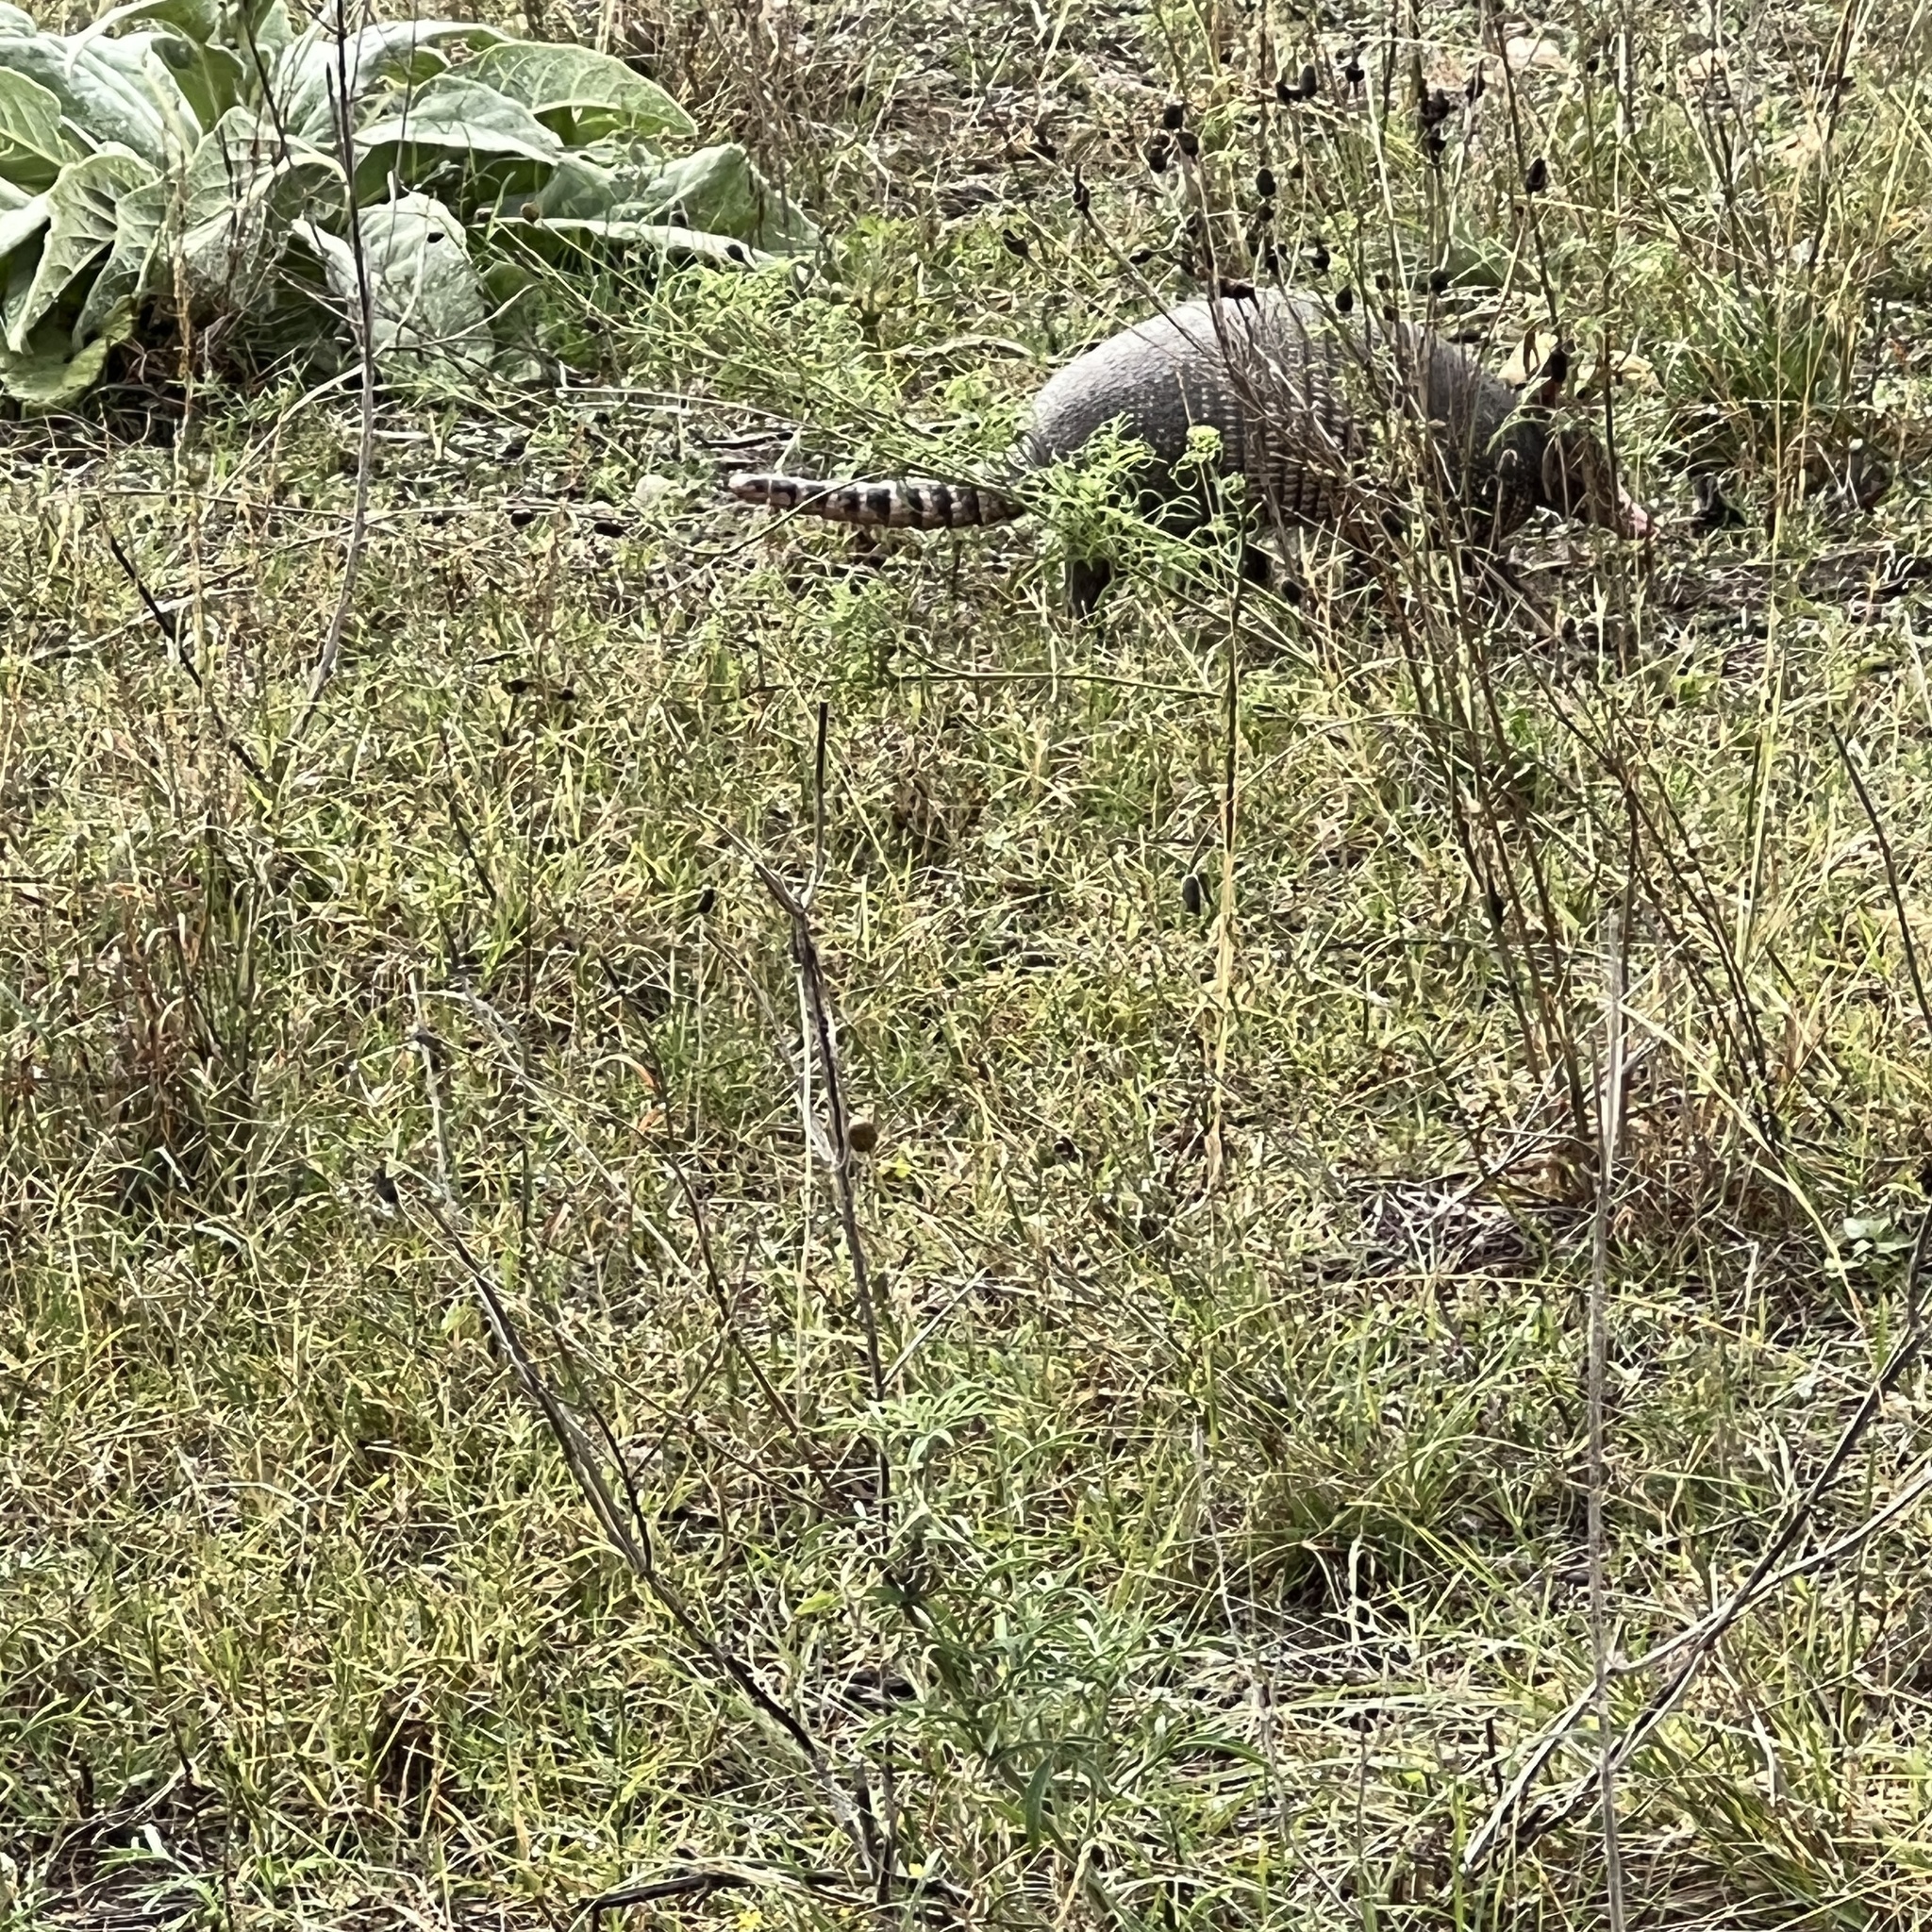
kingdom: Animalia
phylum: Chordata
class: Mammalia
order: Cingulata
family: Dasypodidae
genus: Dasypus
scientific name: Dasypus novemcinctus
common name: Nine-banded armadillo
